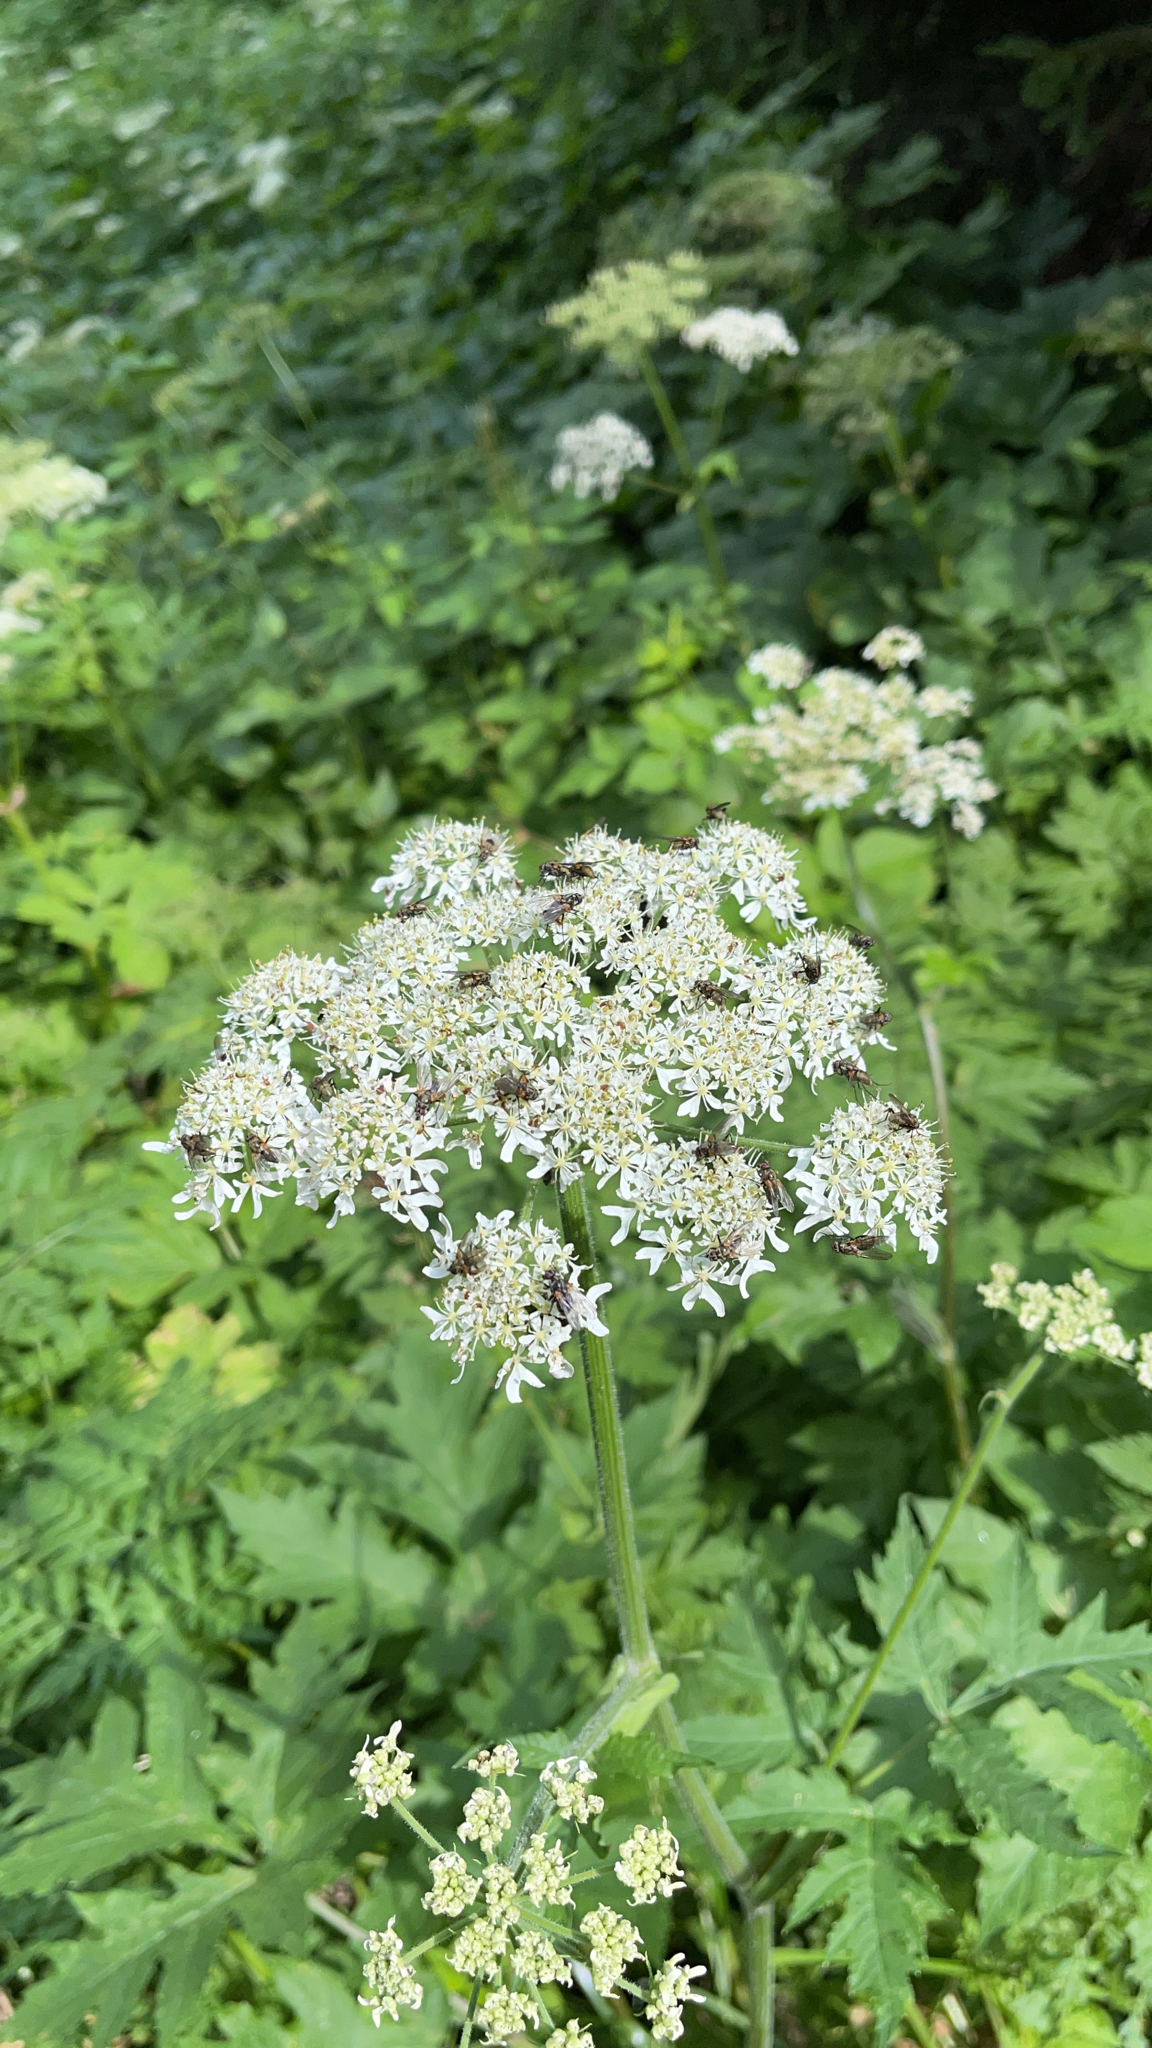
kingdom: Plantae
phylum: Tracheophyta
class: Magnoliopsida
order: Apiales
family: Apiaceae
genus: Heracleum
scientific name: Heracleum sphondylium
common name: Hogweed
